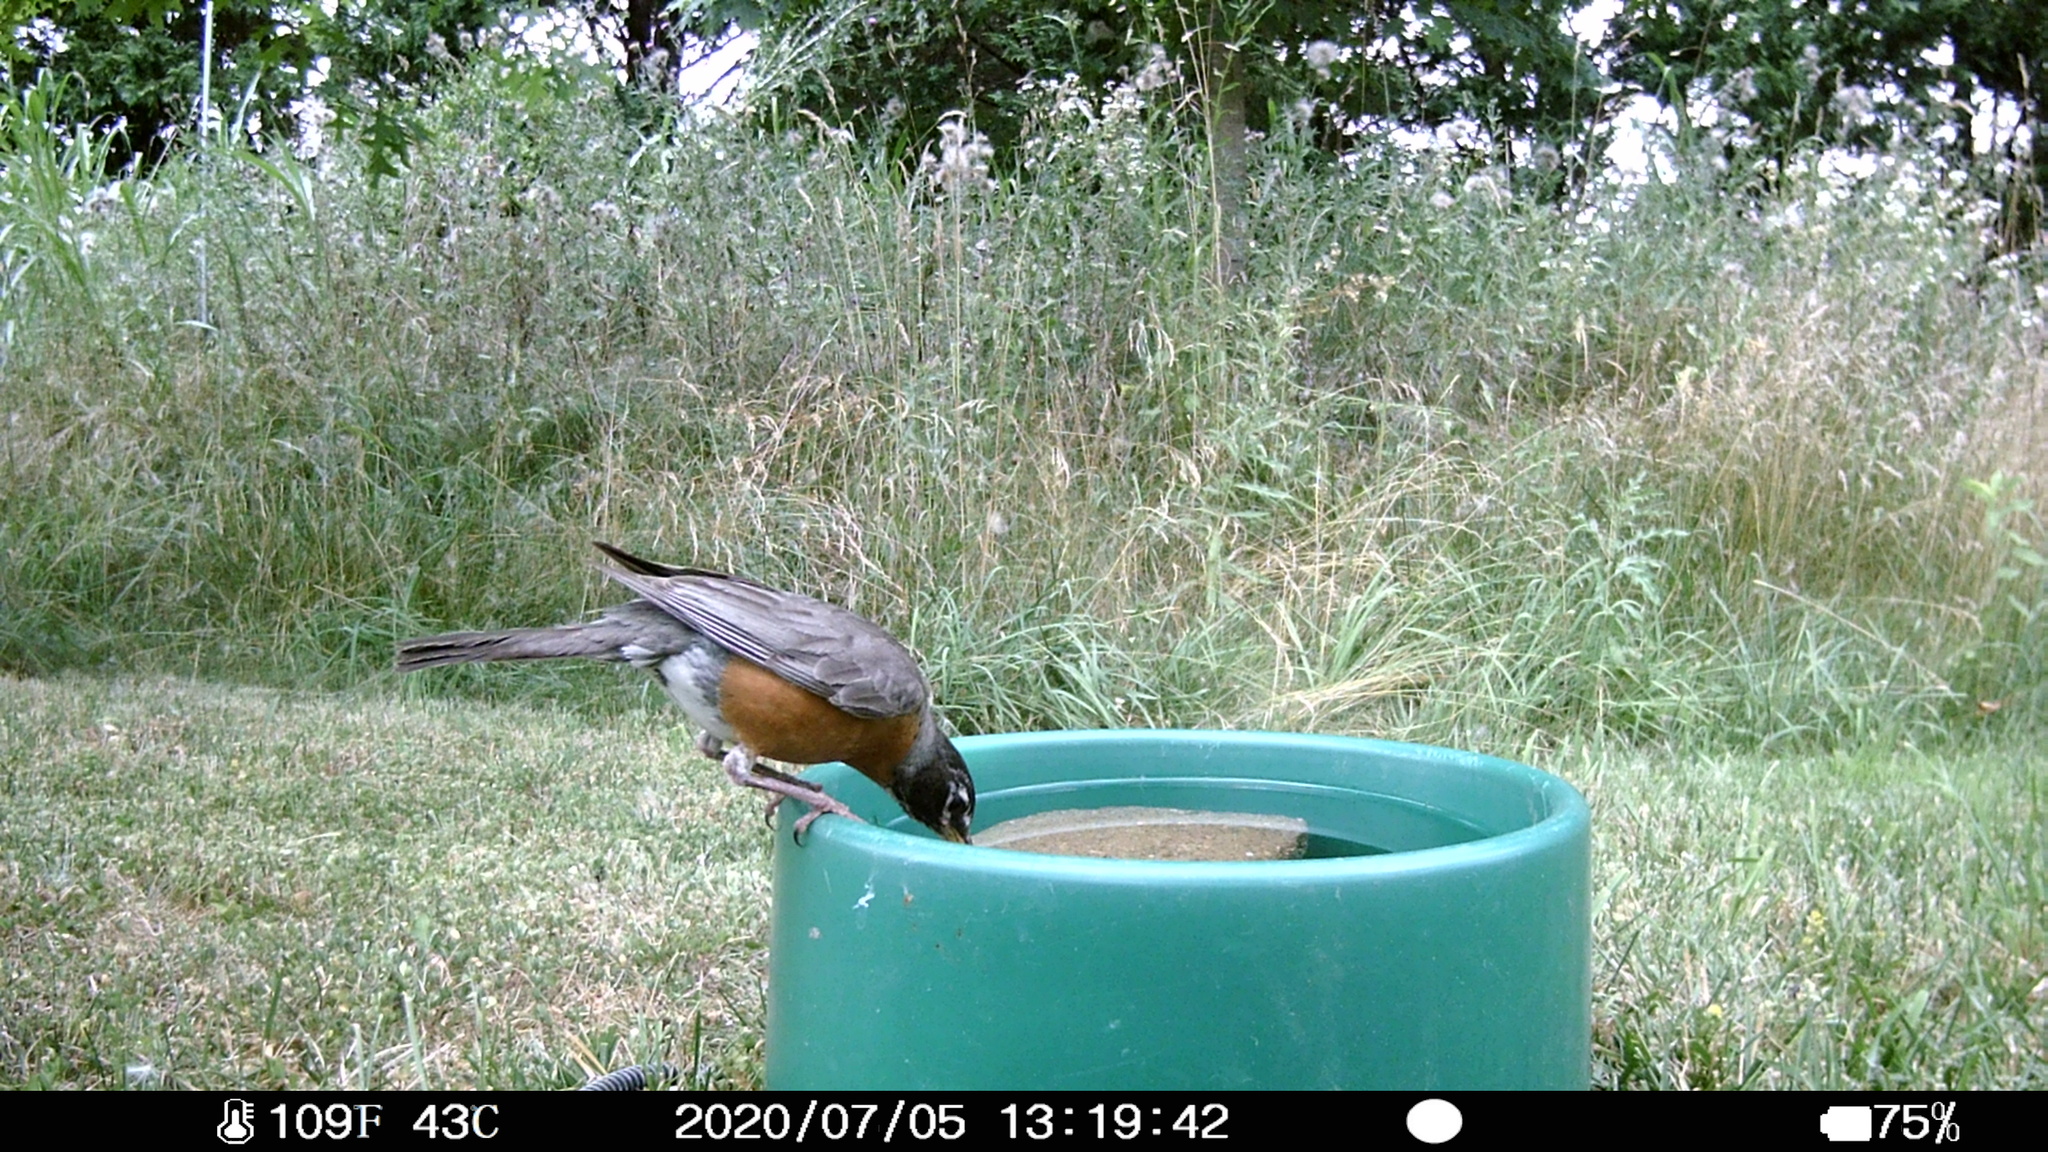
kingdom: Animalia
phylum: Chordata
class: Aves
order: Passeriformes
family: Turdidae
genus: Turdus
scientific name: Turdus migratorius
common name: American robin
